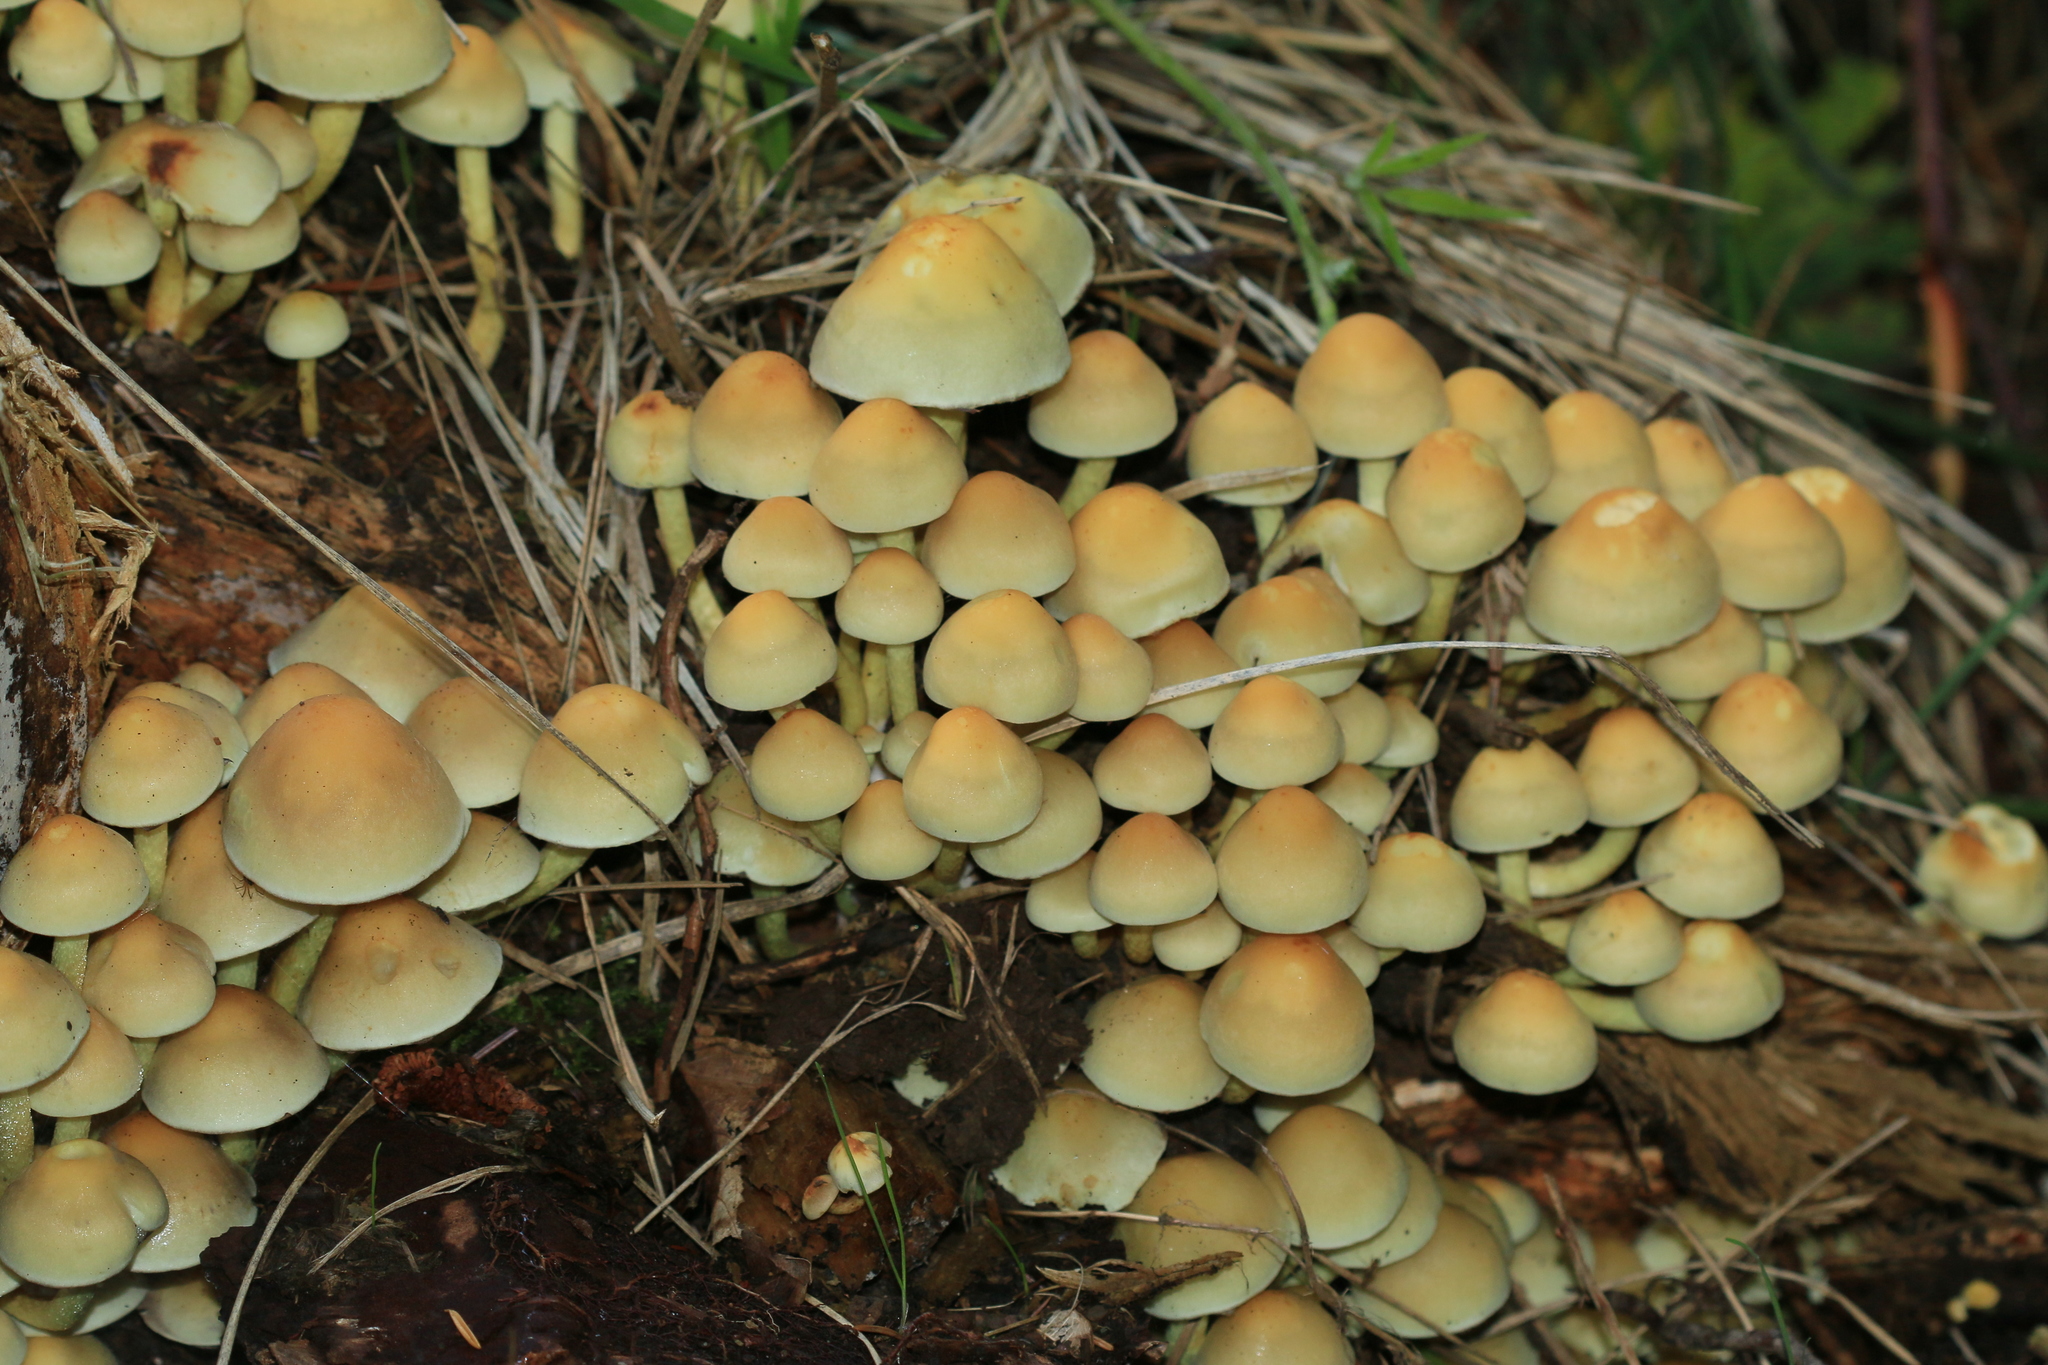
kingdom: Fungi
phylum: Basidiomycota
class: Agaricomycetes
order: Agaricales
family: Strophariaceae
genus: Hypholoma
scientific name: Hypholoma fasciculare
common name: Sulphur tuft
